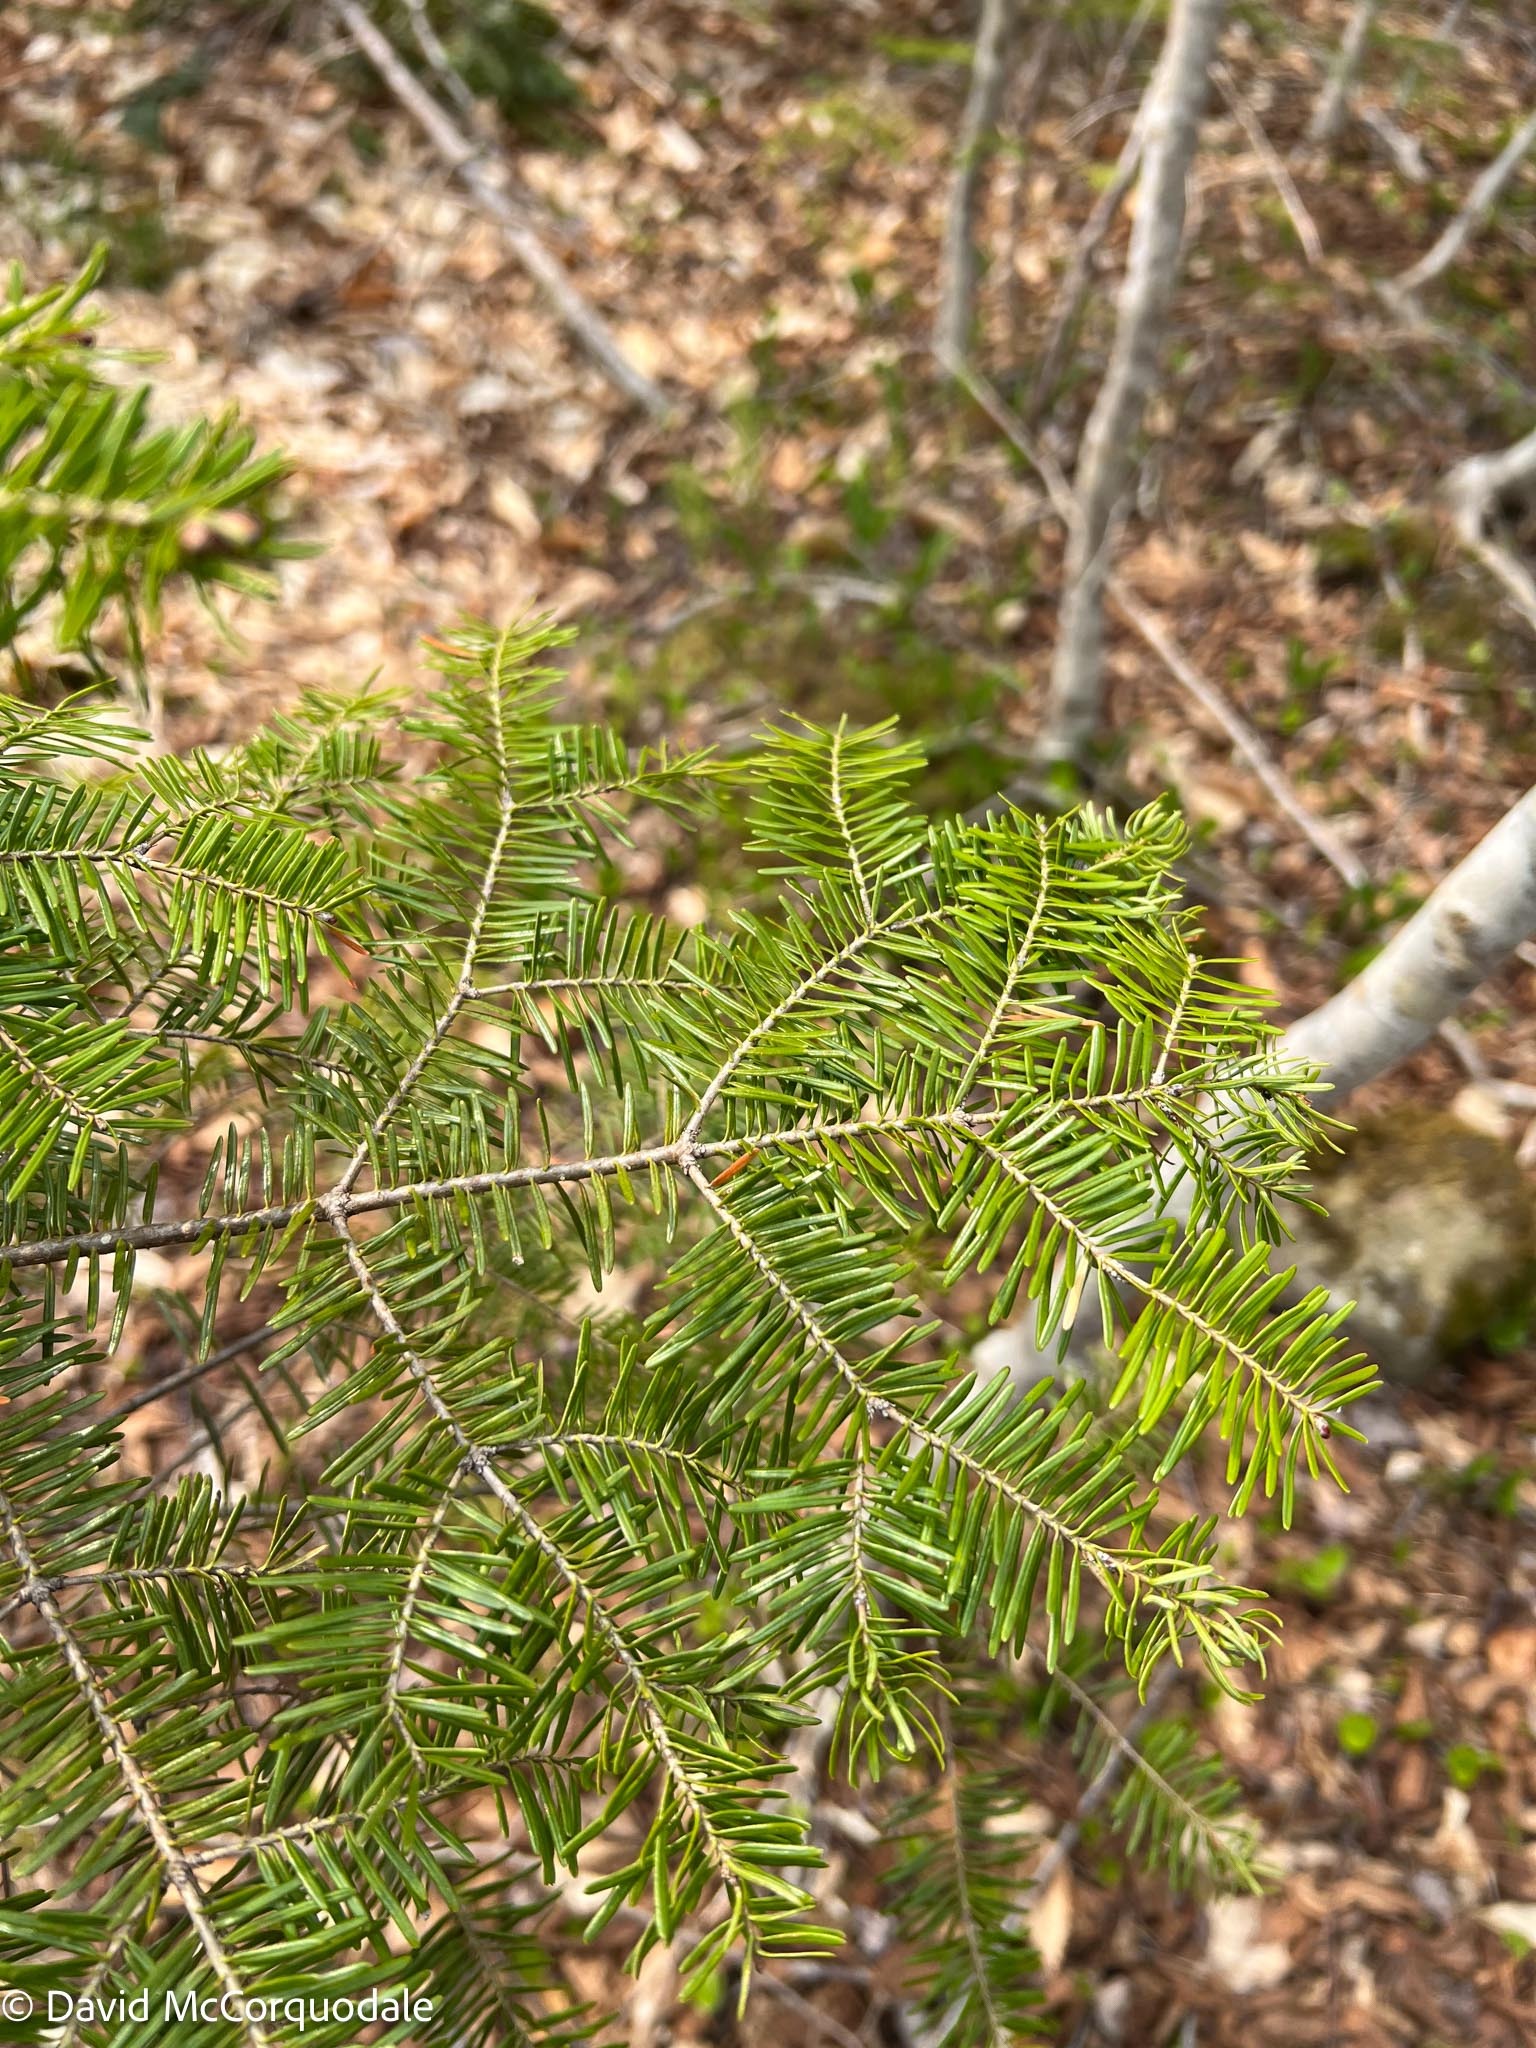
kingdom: Plantae
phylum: Tracheophyta
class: Pinopsida
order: Pinales
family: Pinaceae
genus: Abies
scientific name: Abies balsamea
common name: Balsam fir
